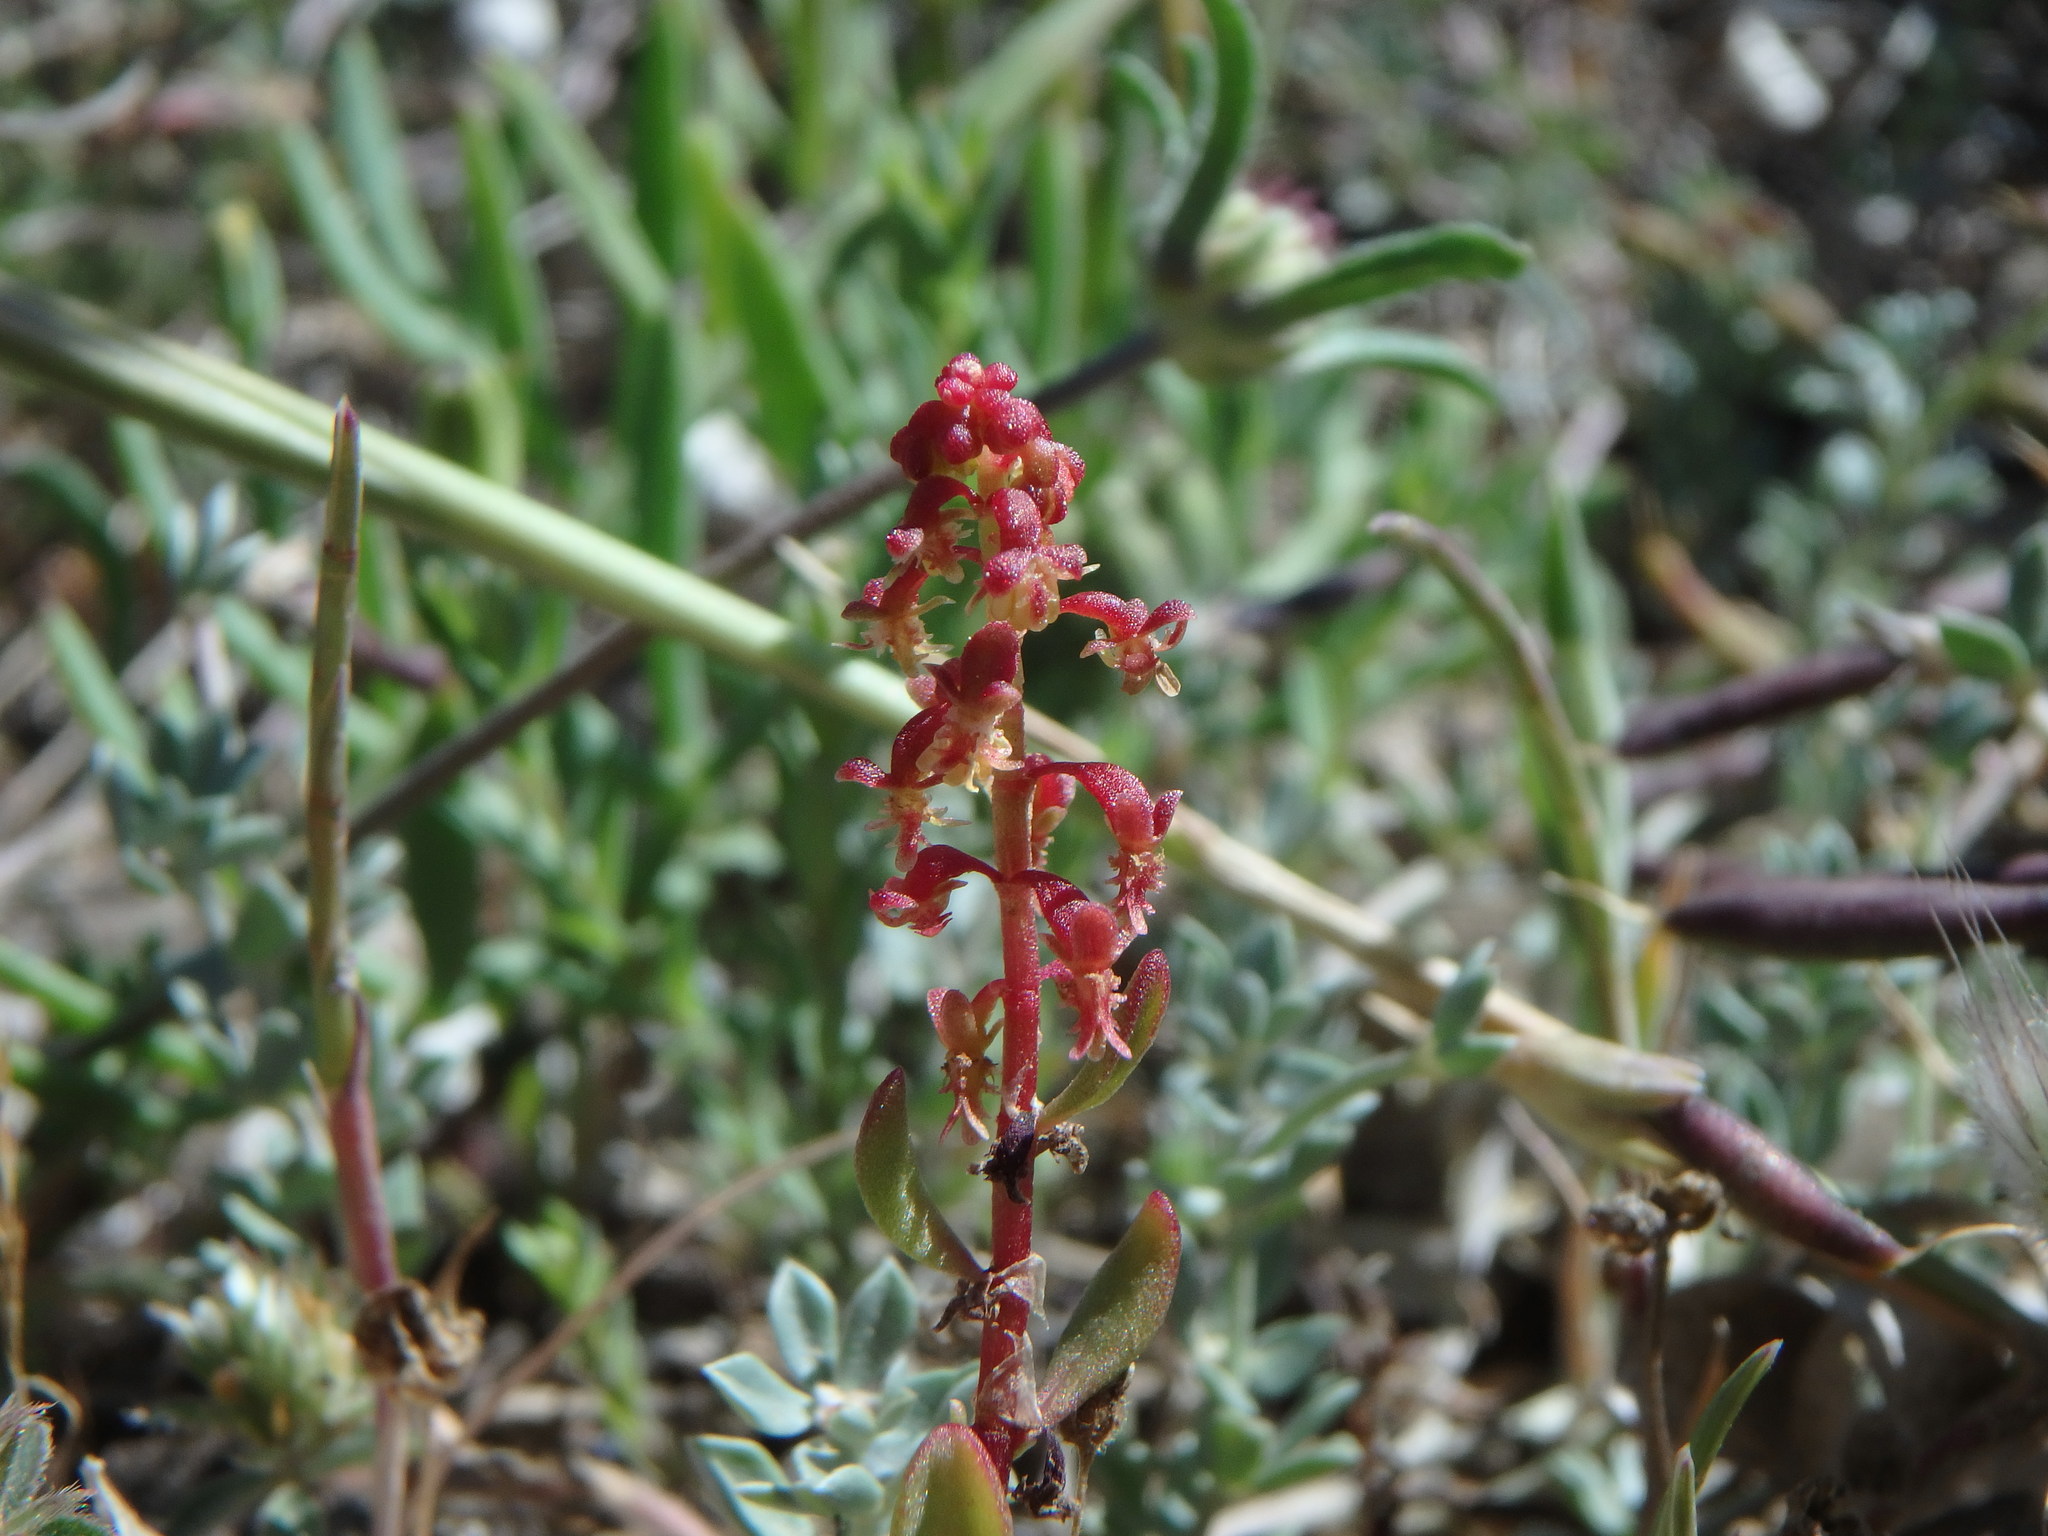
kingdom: Plantae
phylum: Tracheophyta
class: Magnoliopsida
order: Caryophyllales
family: Polygonaceae
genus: Rumex
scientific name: Rumex bucephalophorus
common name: Red dock
